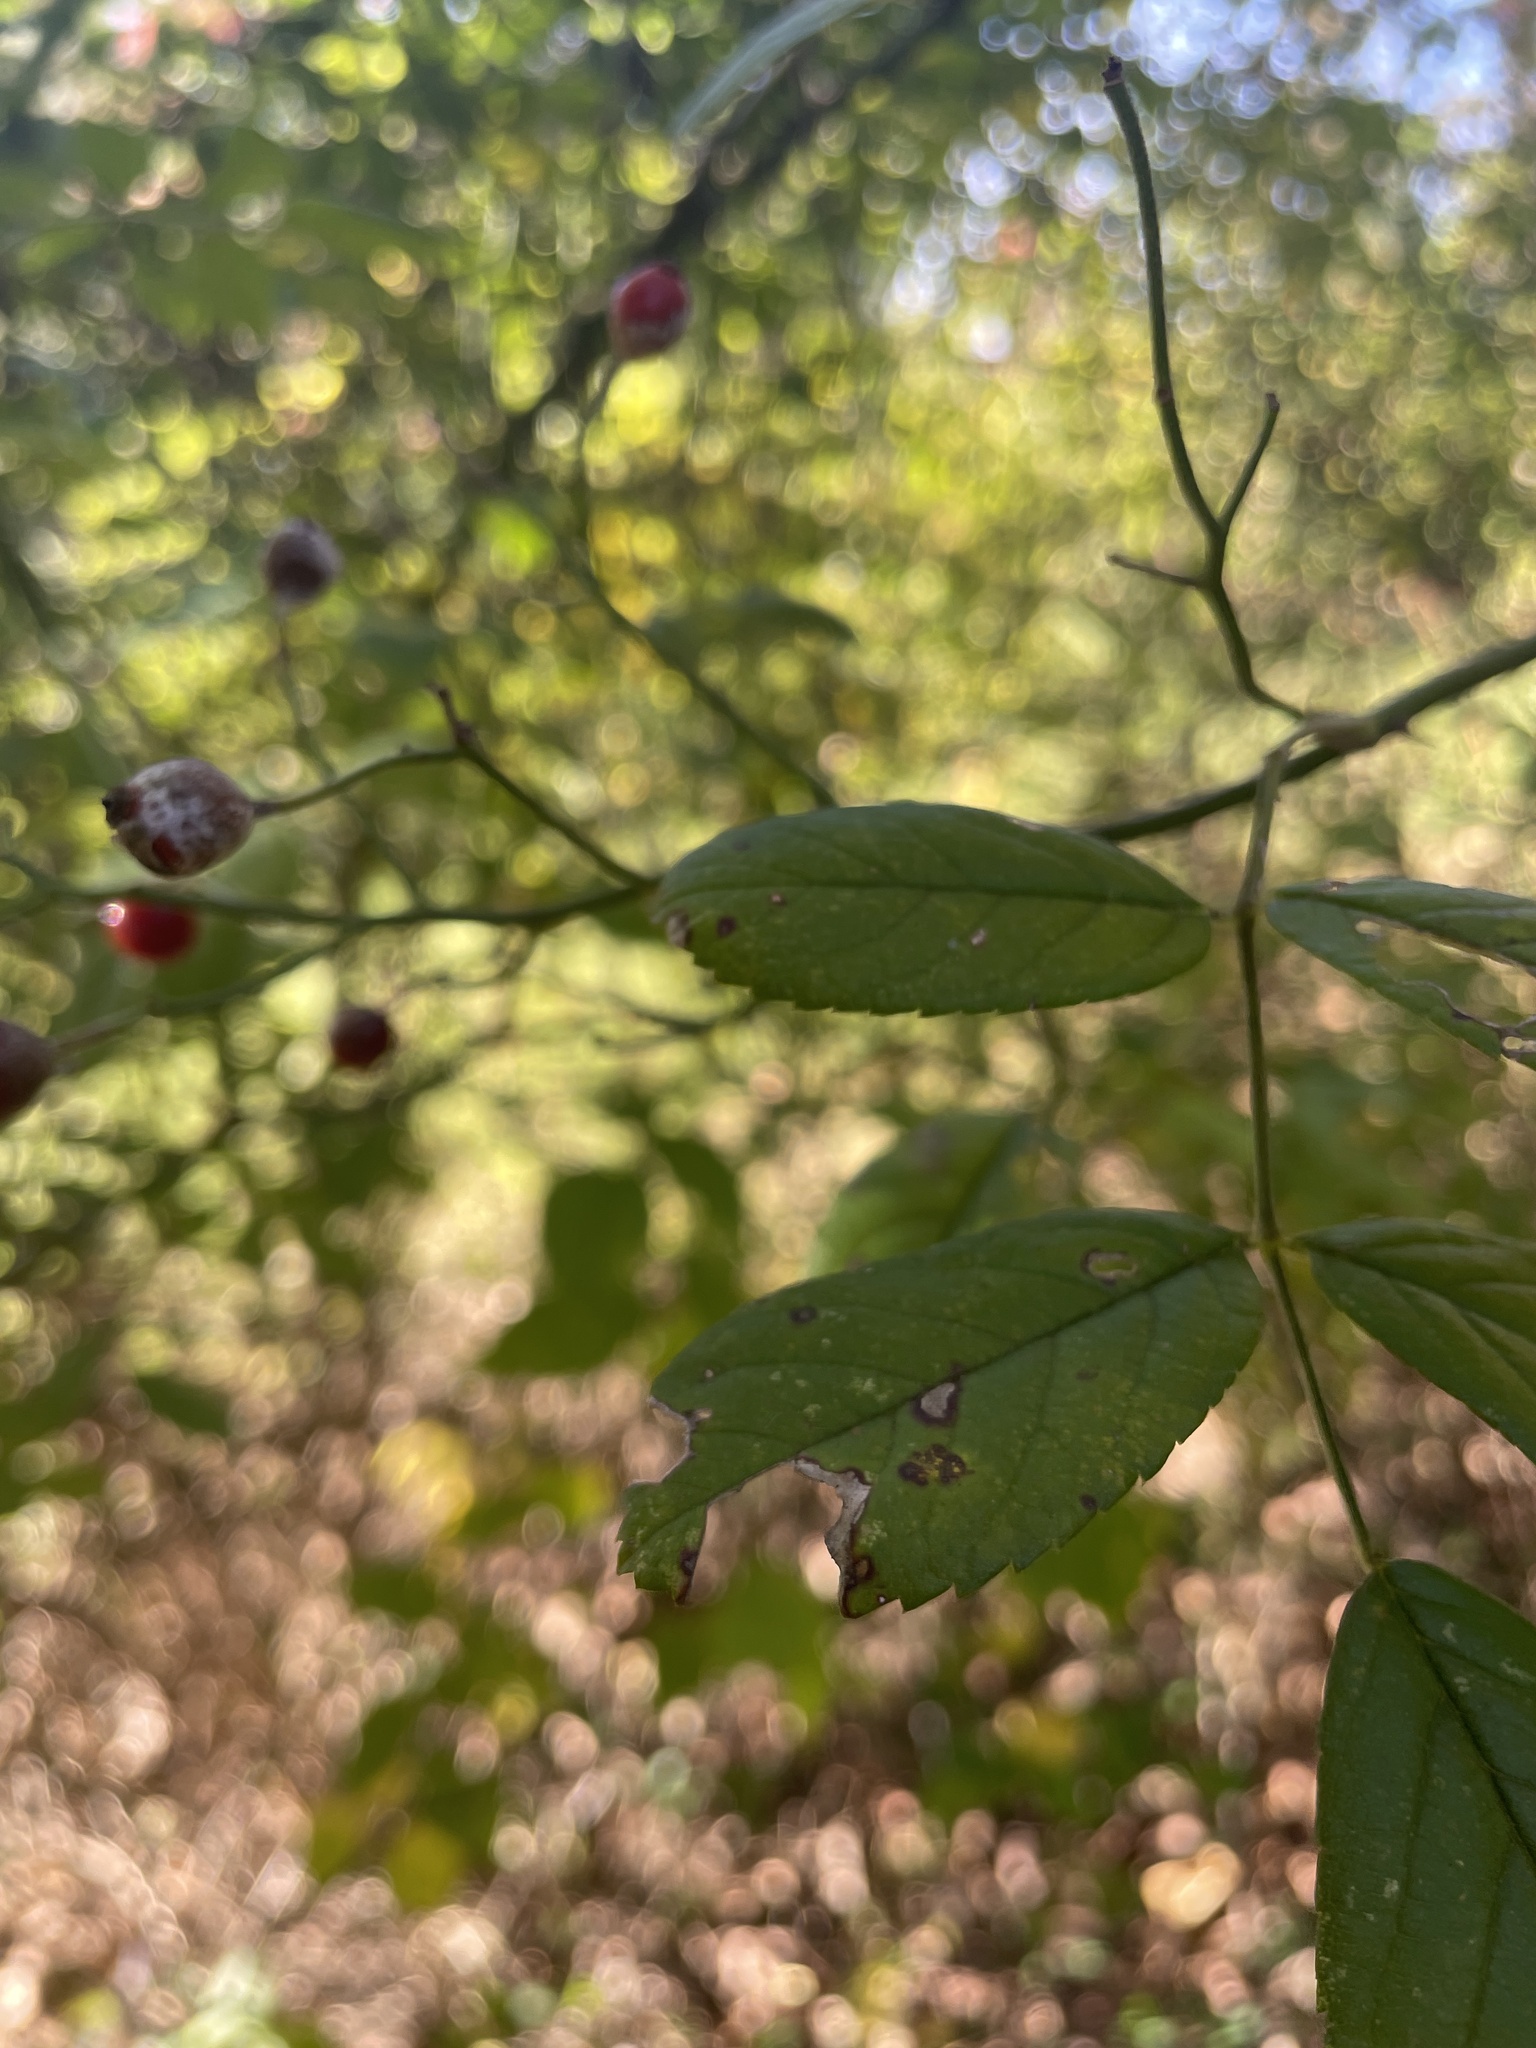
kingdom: Plantae
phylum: Tracheophyta
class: Magnoliopsida
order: Rosales
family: Rosaceae
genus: Rosa
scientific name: Rosa multiflora
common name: Multiflora rose
